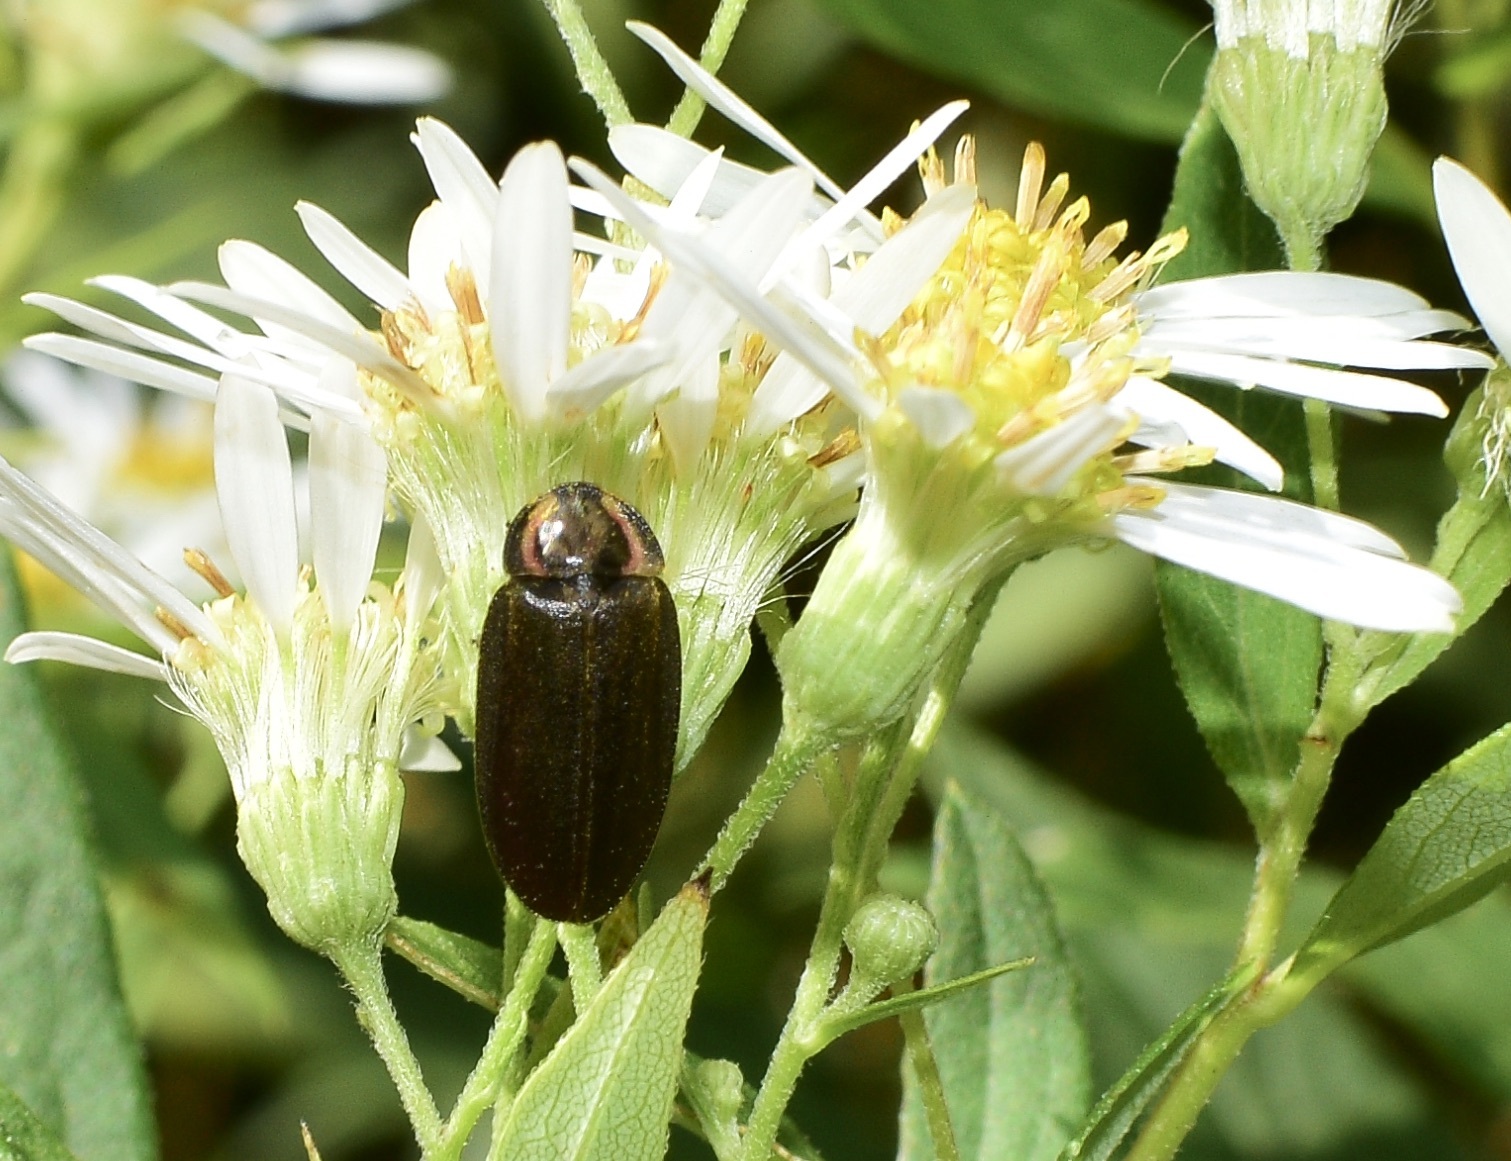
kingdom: Animalia
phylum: Arthropoda
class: Insecta
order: Coleoptera
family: Lampyridae
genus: Photinus
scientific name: Photinus corrusca
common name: Winter firefly
